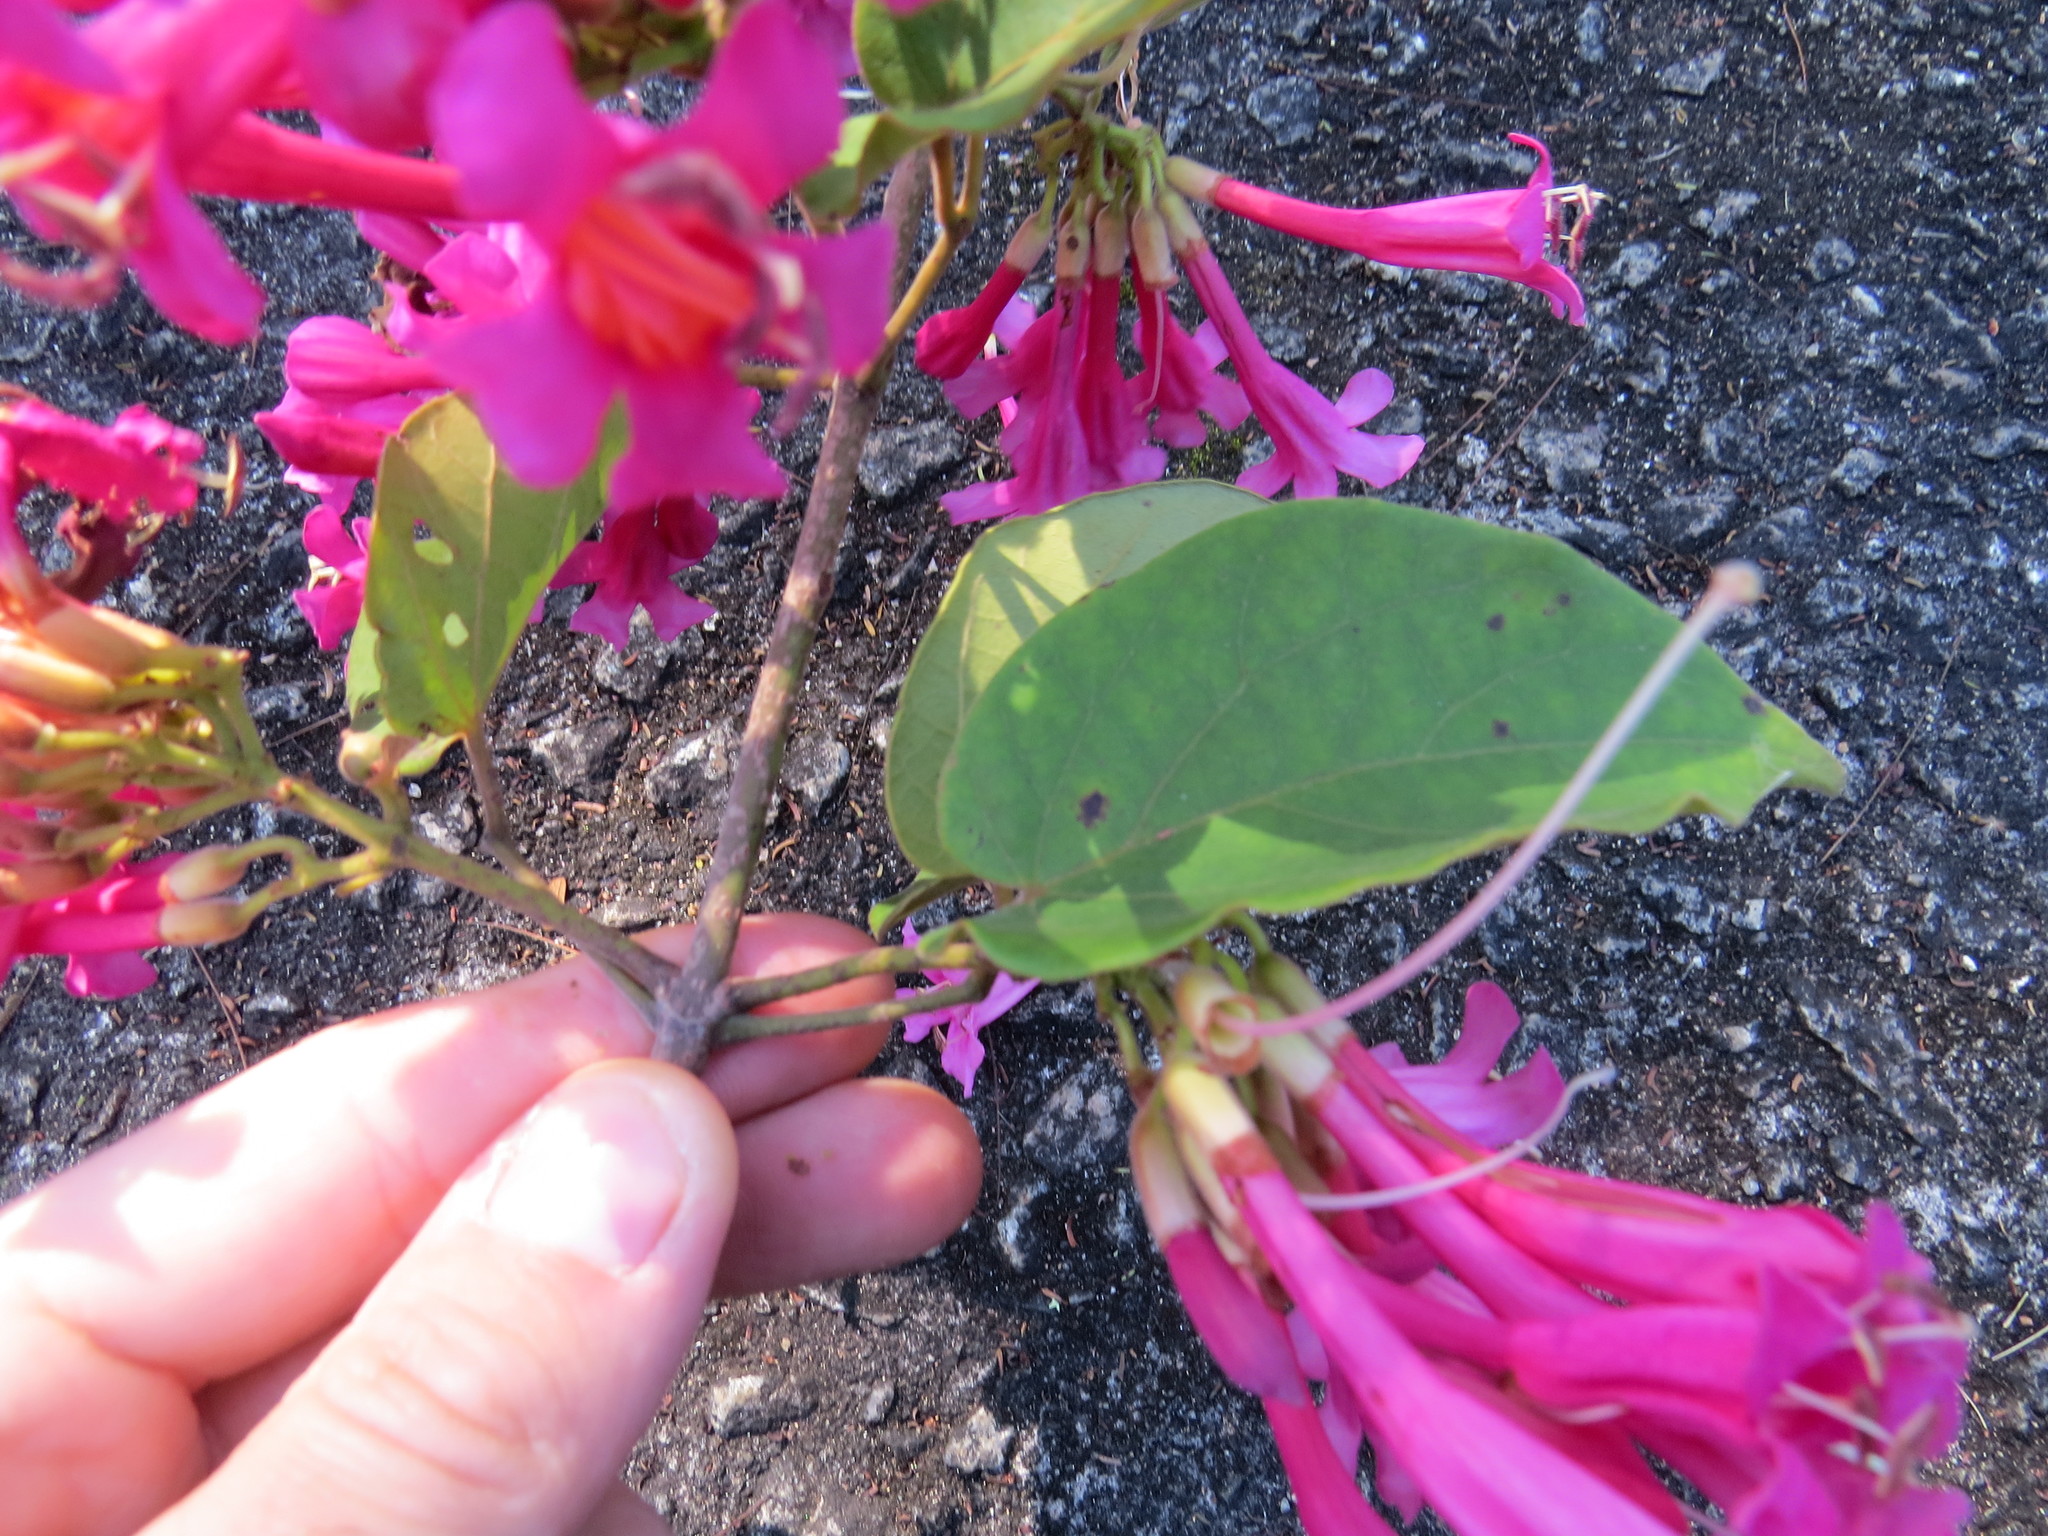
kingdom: Plantae
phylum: Tracheophyta
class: Magnoliopsida
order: Lamiales
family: Bignoniaceae
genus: Lundia
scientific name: Lundia longa
